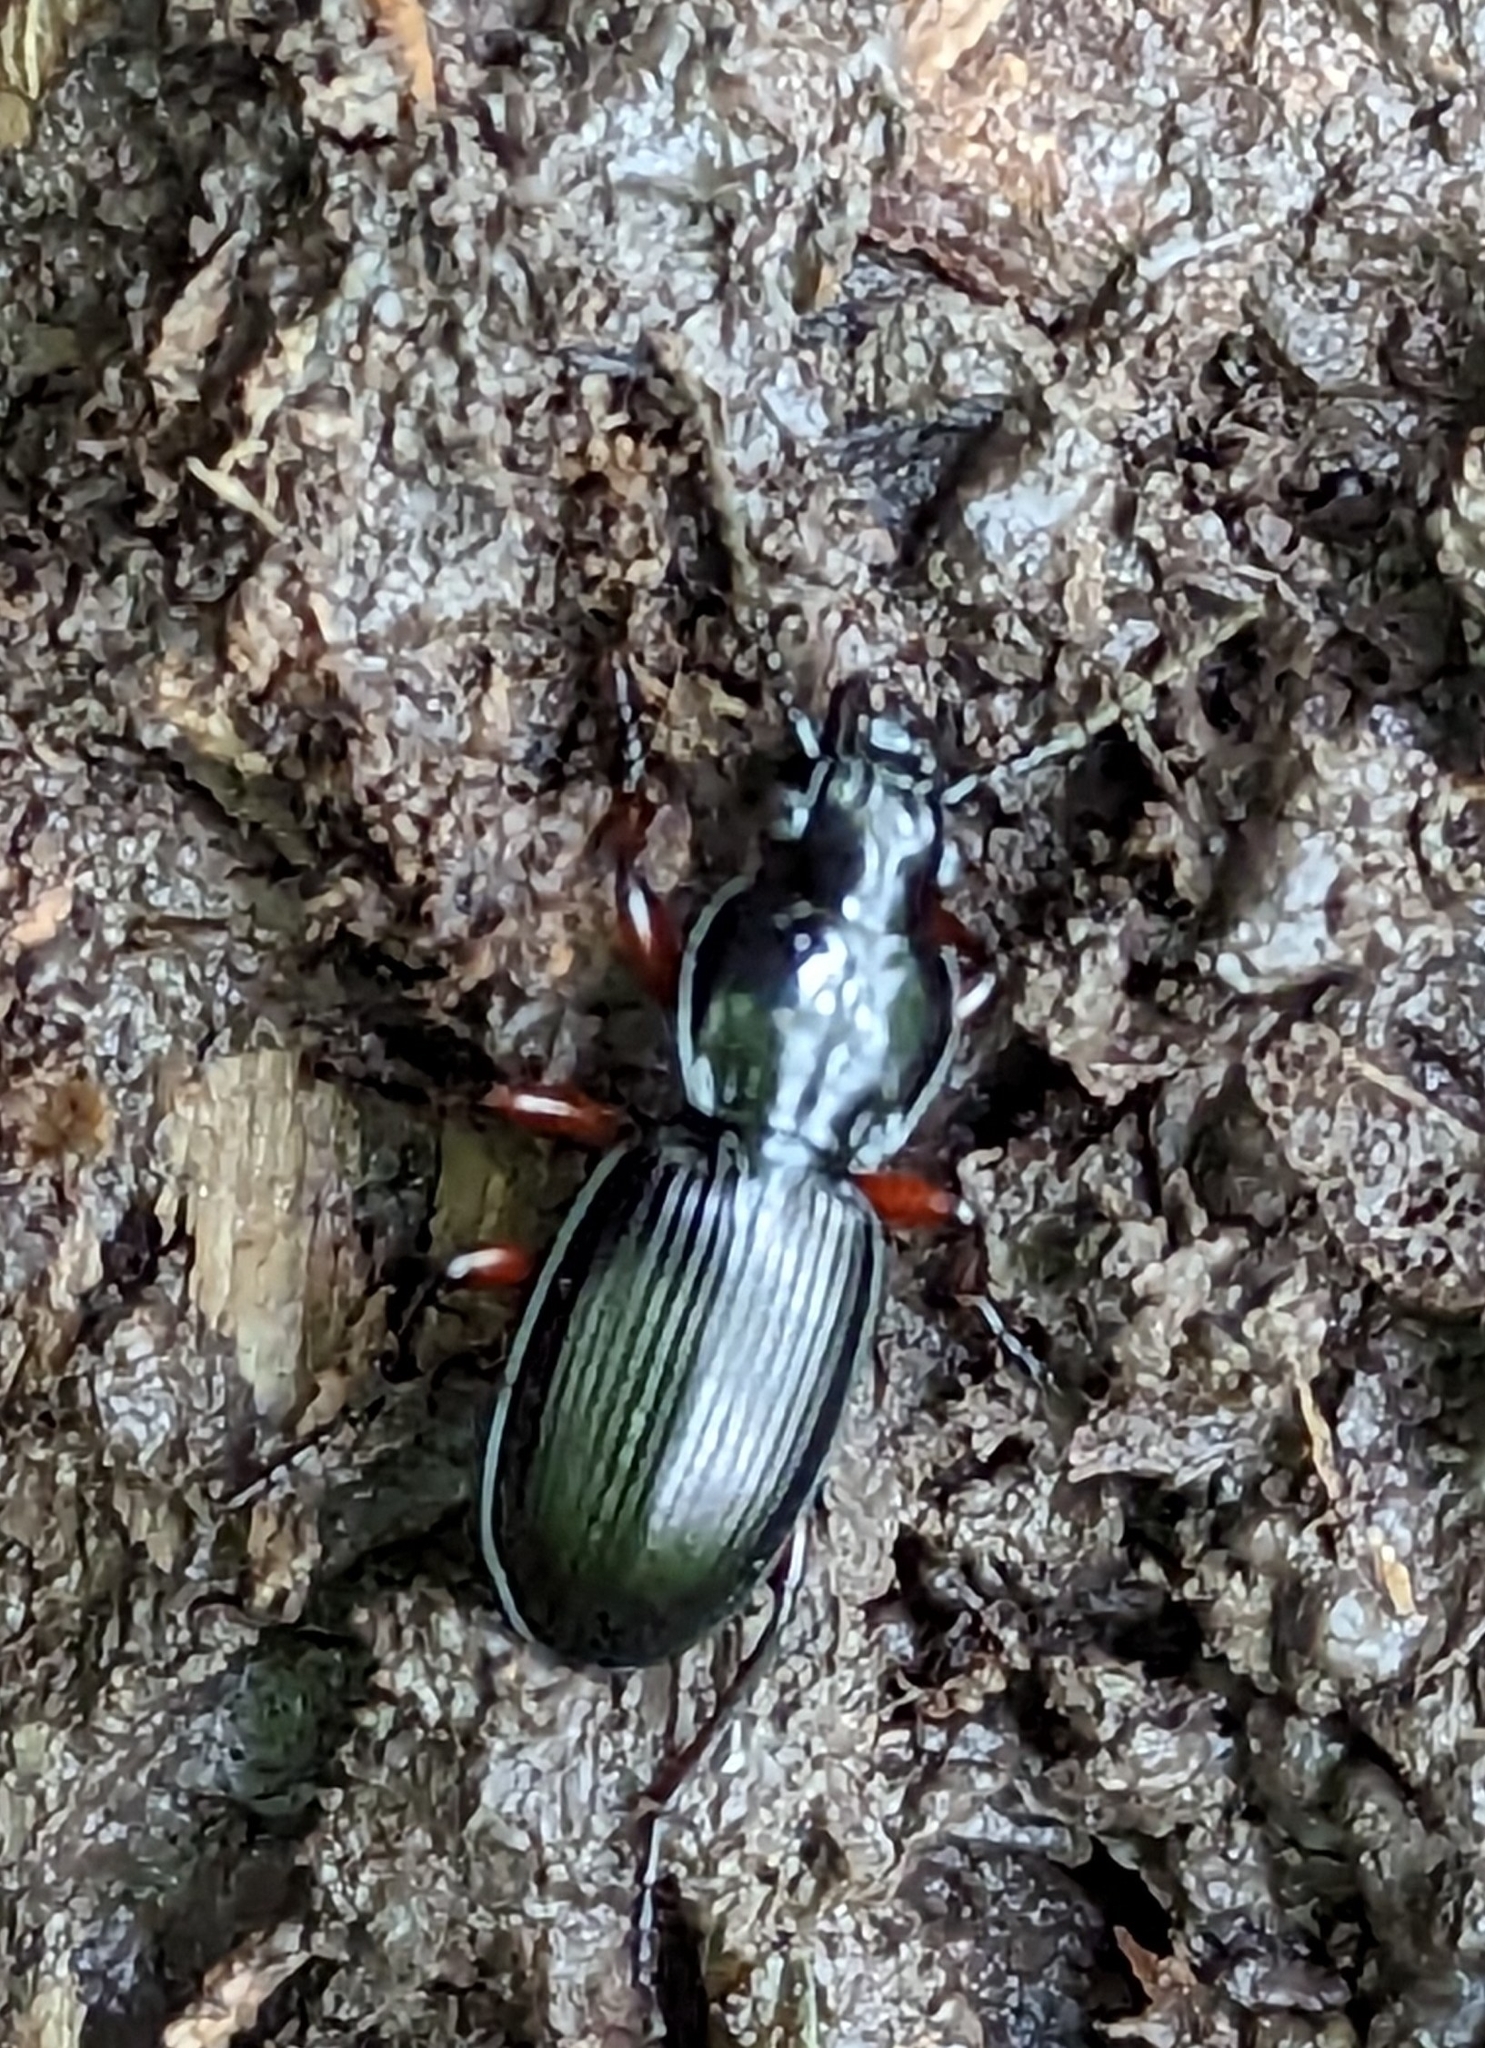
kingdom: Animalia
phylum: Arthropoda
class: Insecta
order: Coleoptera
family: Carabidae
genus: Pterostichus
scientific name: Pterostichus madidus
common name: Black clock
